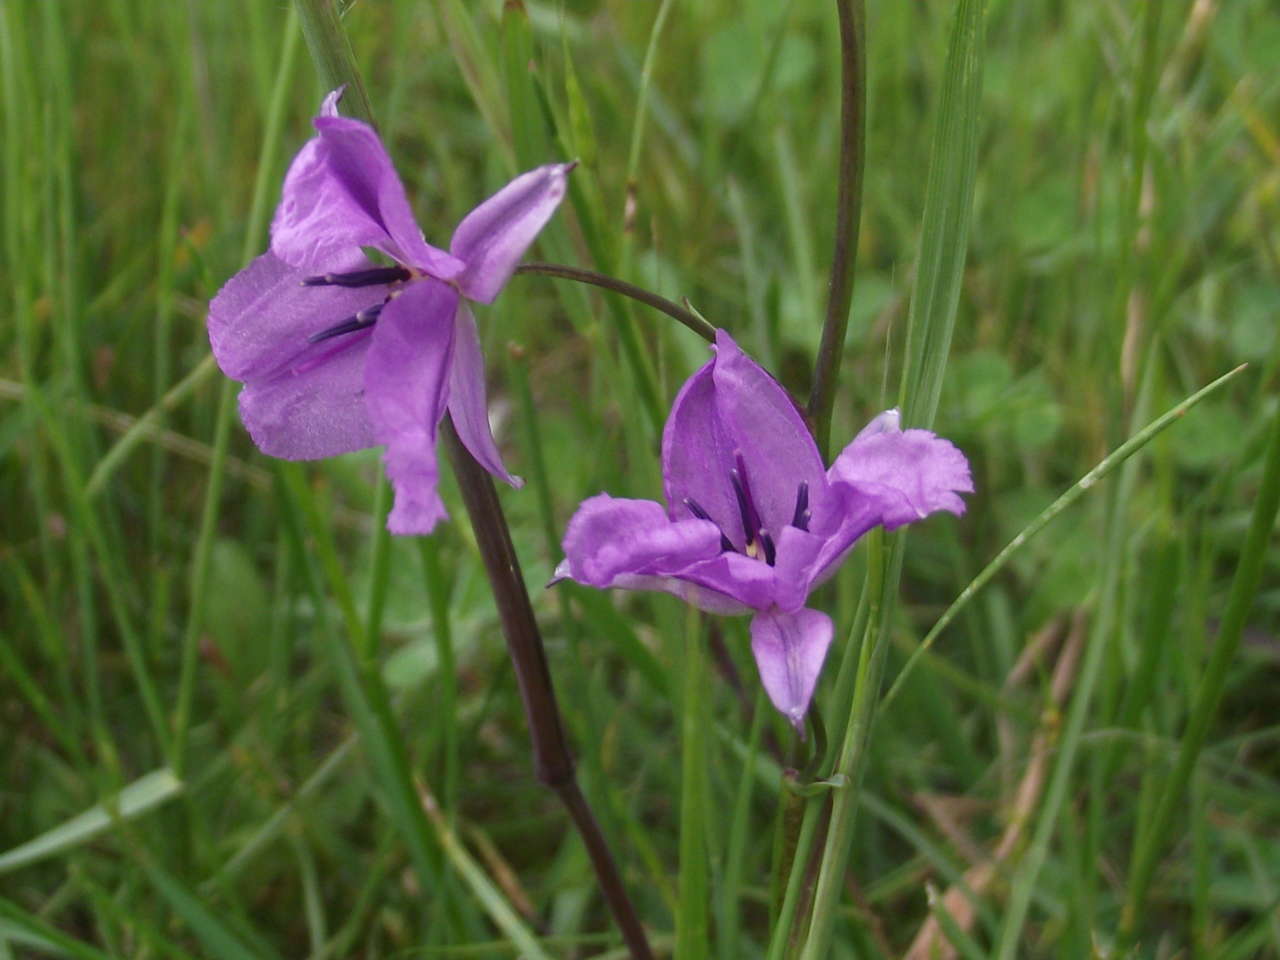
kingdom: Plantae
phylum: Tracheophyta
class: Liliopsida
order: Asparagales
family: Asparagaceae
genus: Arthropodium
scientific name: Arthropodium strictum
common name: Chocolate-lily
